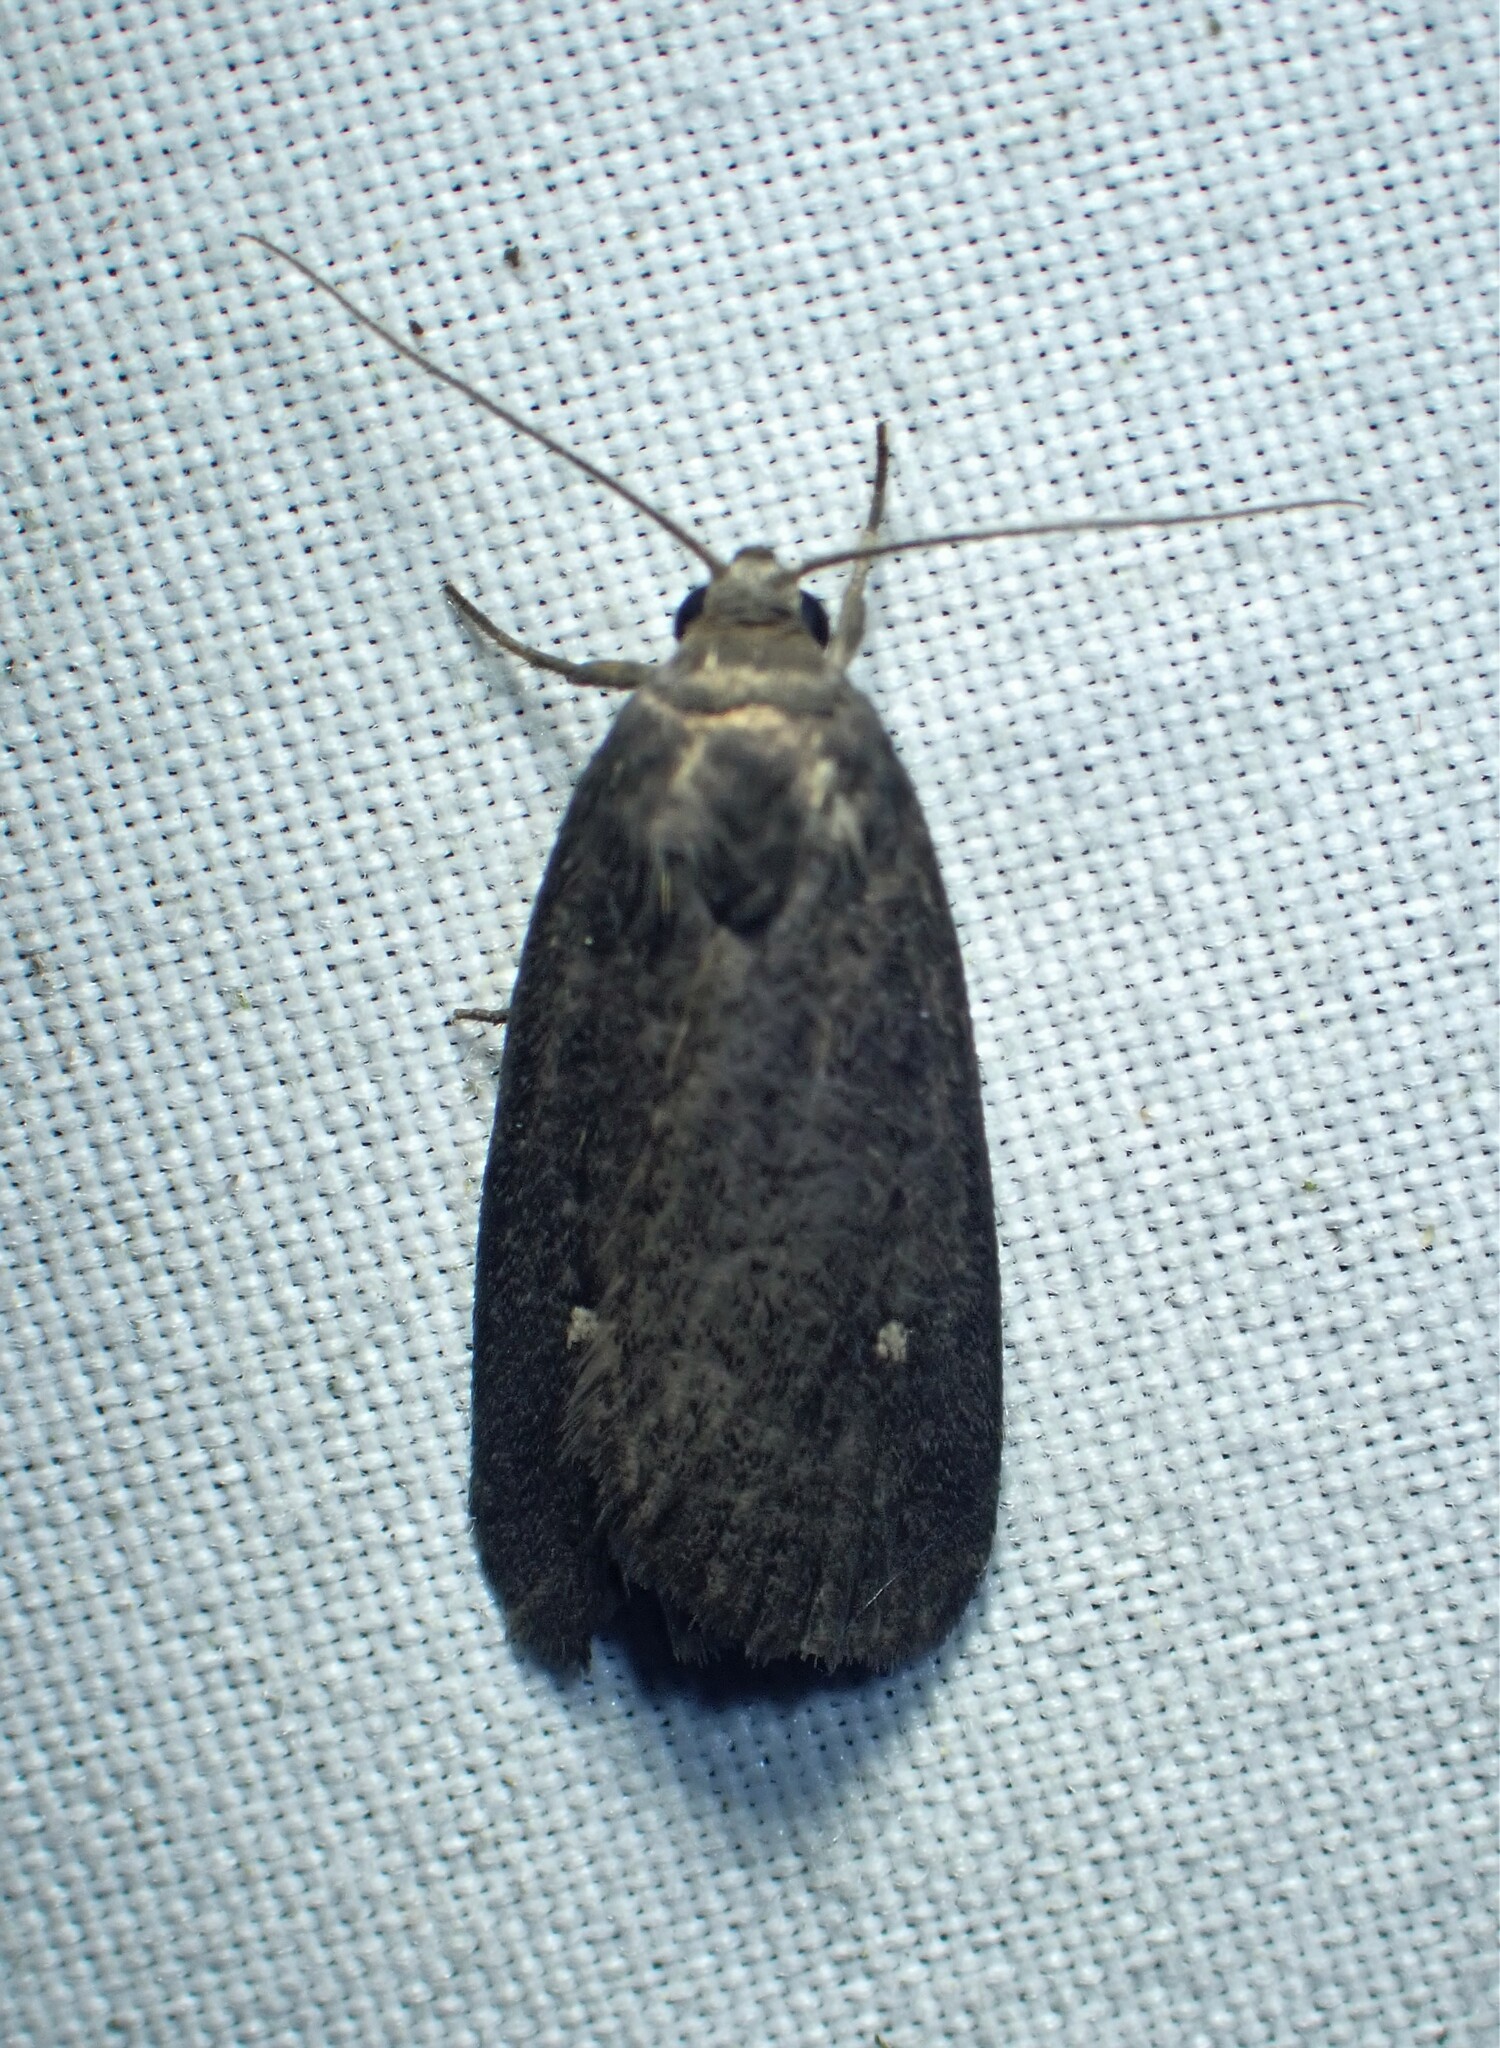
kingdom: Animalia
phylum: Arthropoda
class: Insecta
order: Lepidoptera
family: Noctuidae
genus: Proxenus
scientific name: Proxenus miranda
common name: Miranda moth
